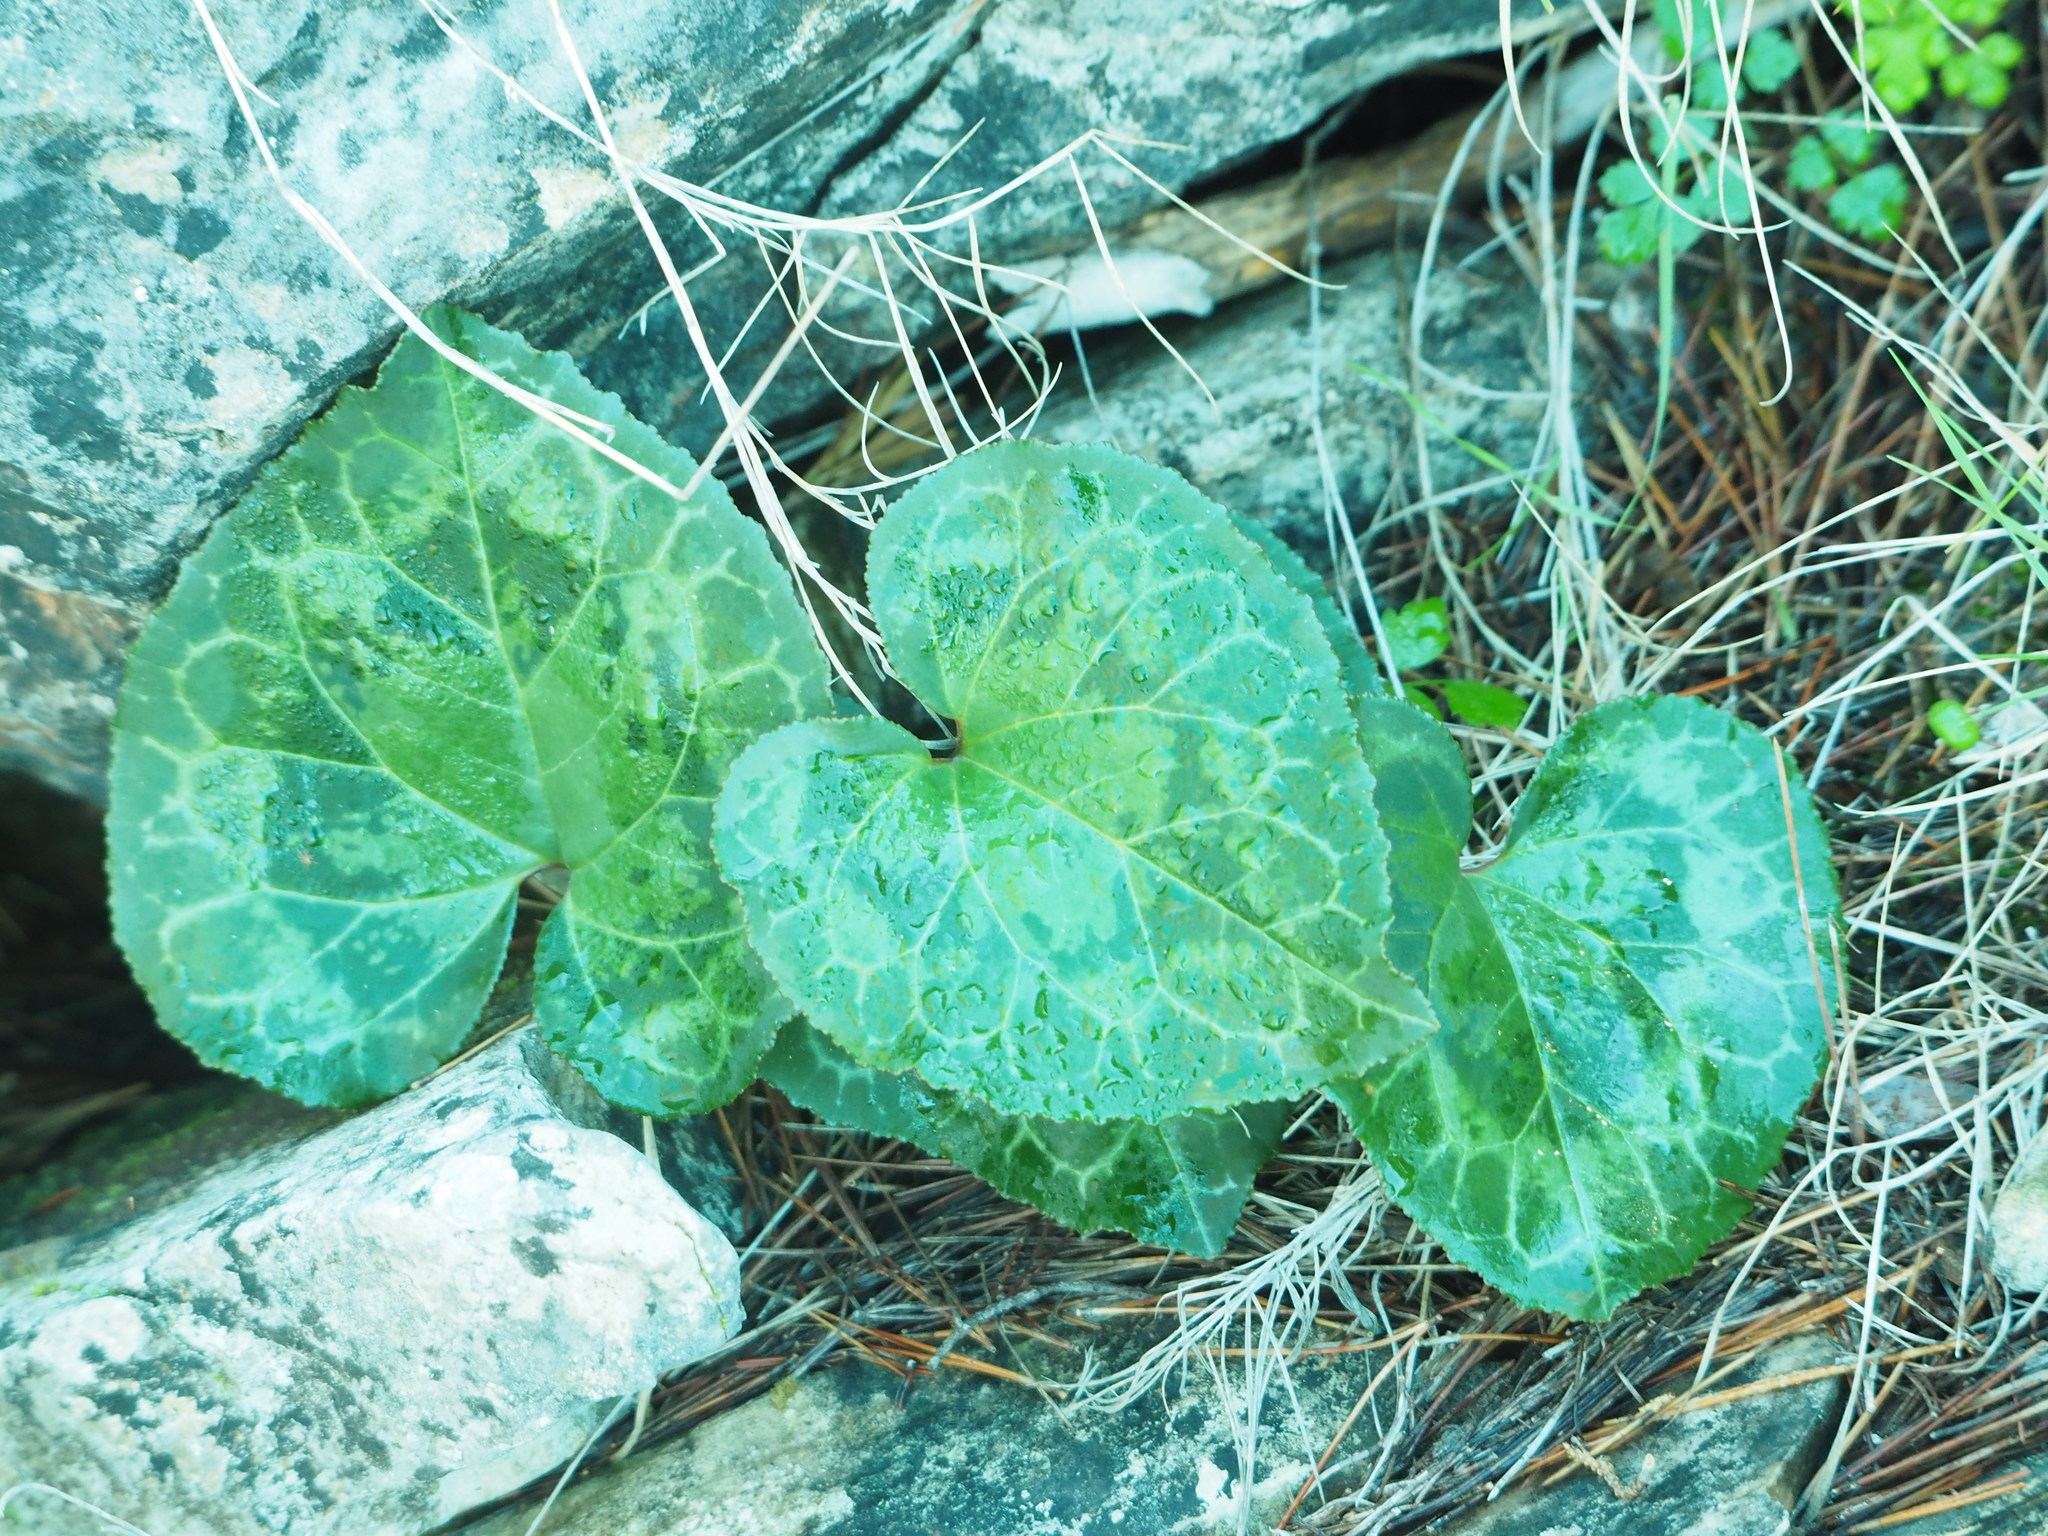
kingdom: Plantae
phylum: Tracheophyta
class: Magnoliopsida
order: Ericales
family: Primulaceae
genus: Cyclamen
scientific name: Cyclamen graecum
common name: Greek cyclamen
